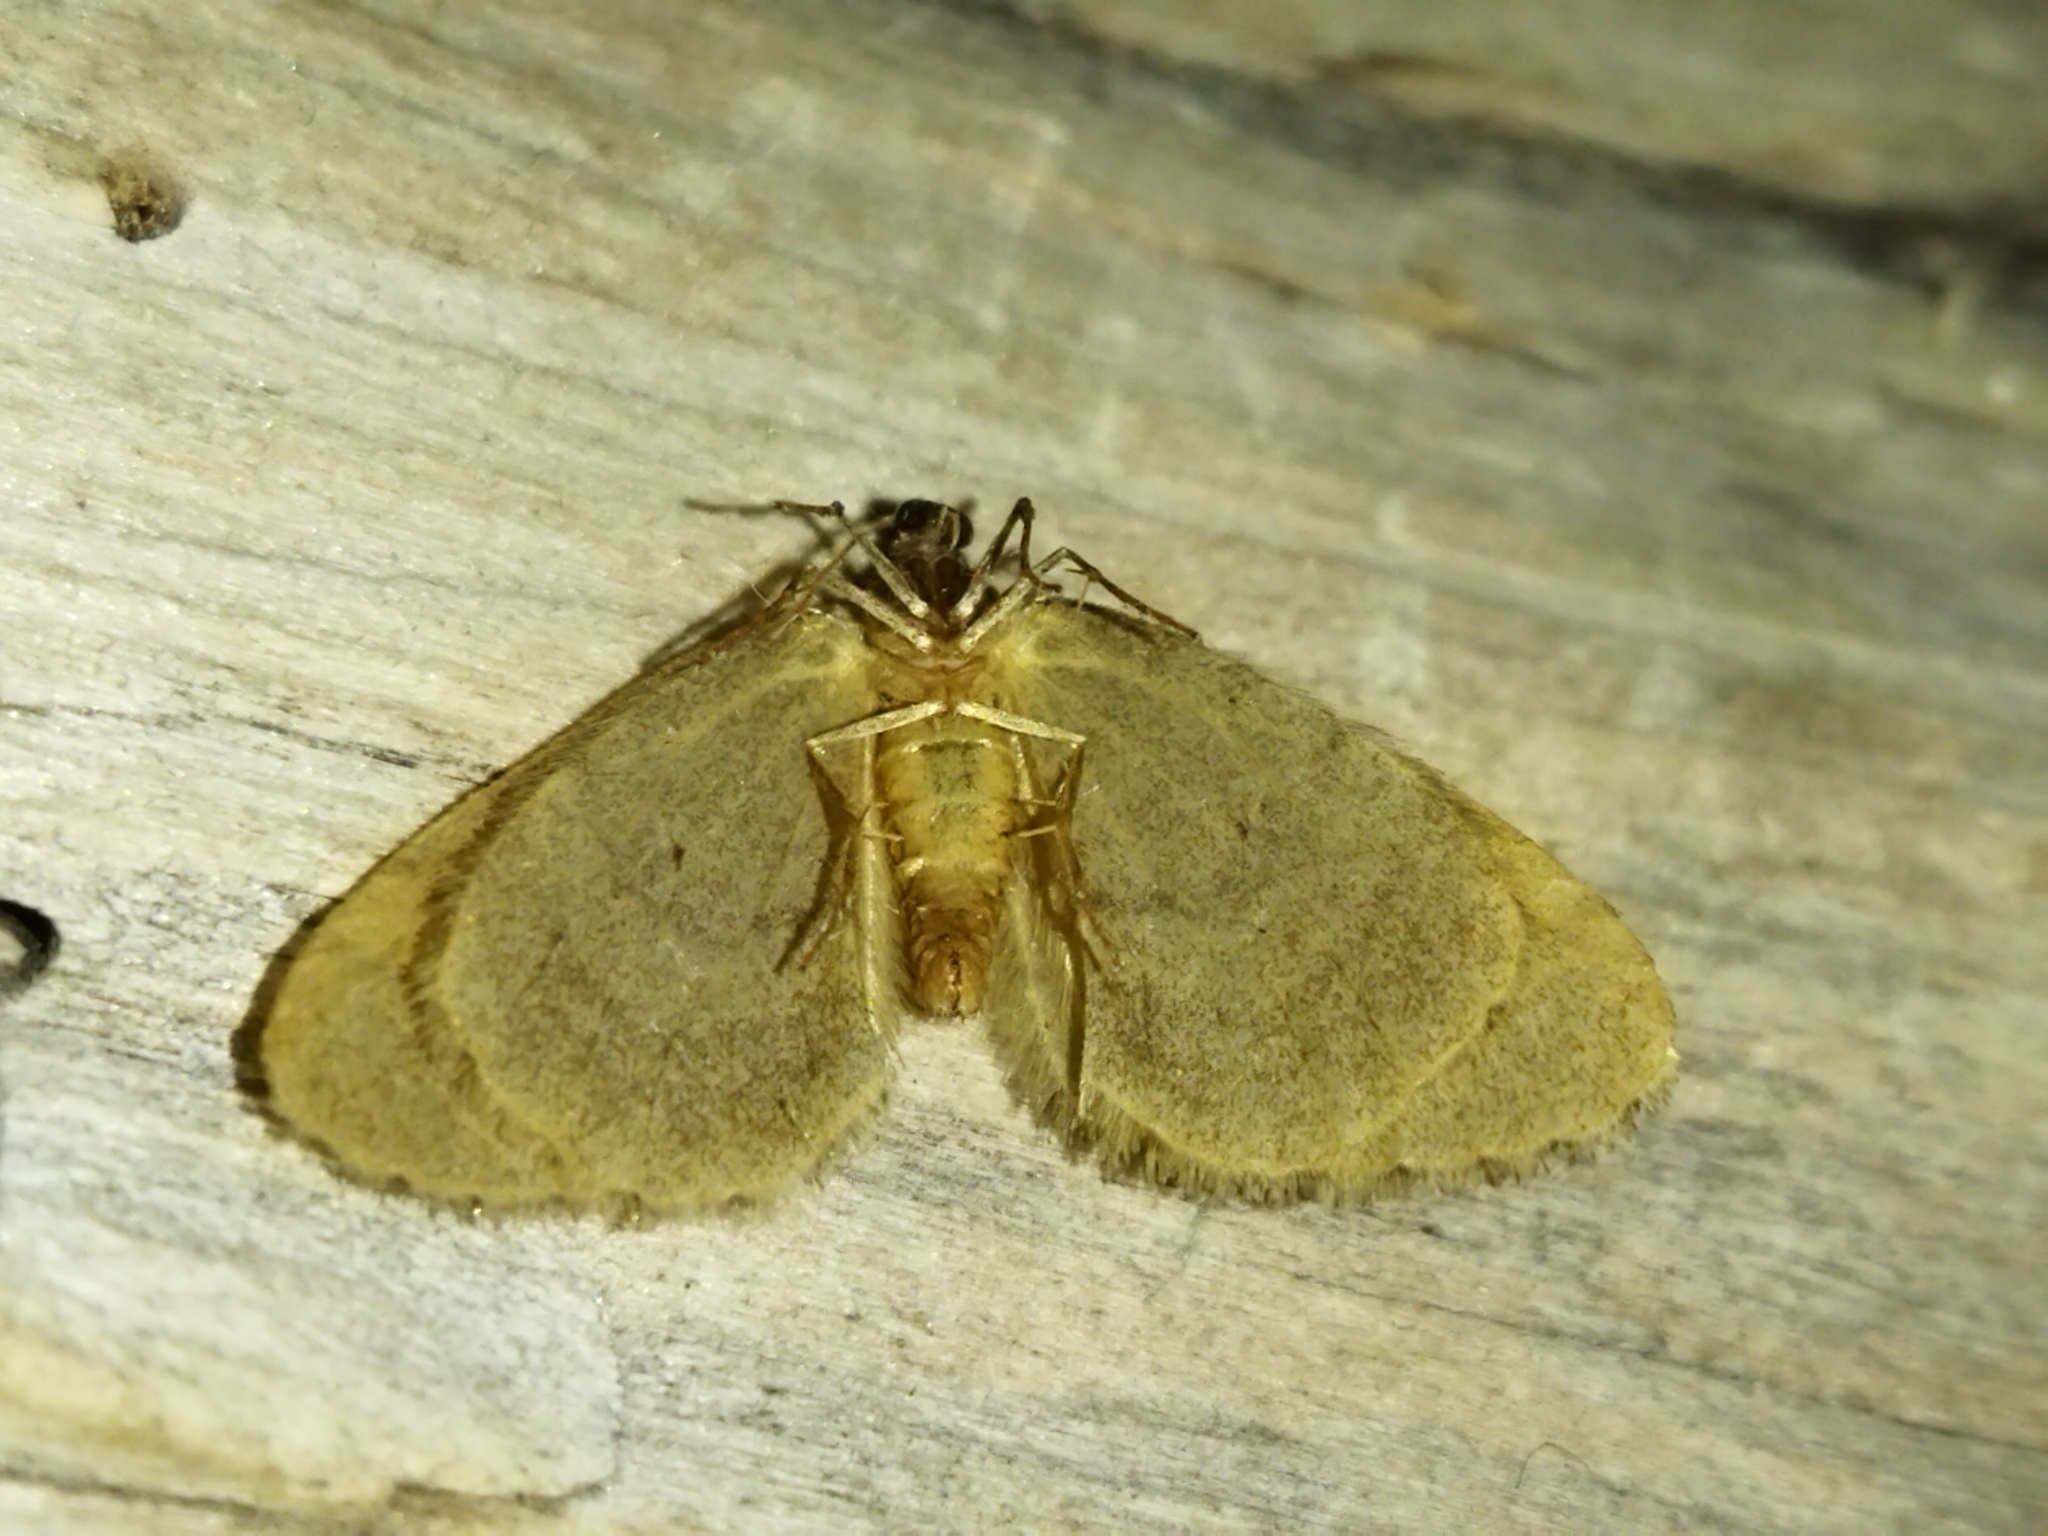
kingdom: Animalia
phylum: Arthropoda
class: Insecta
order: Lepidoptera
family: Geometridae
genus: Operophtera
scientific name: Operophtera brumata
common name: Winter moth
